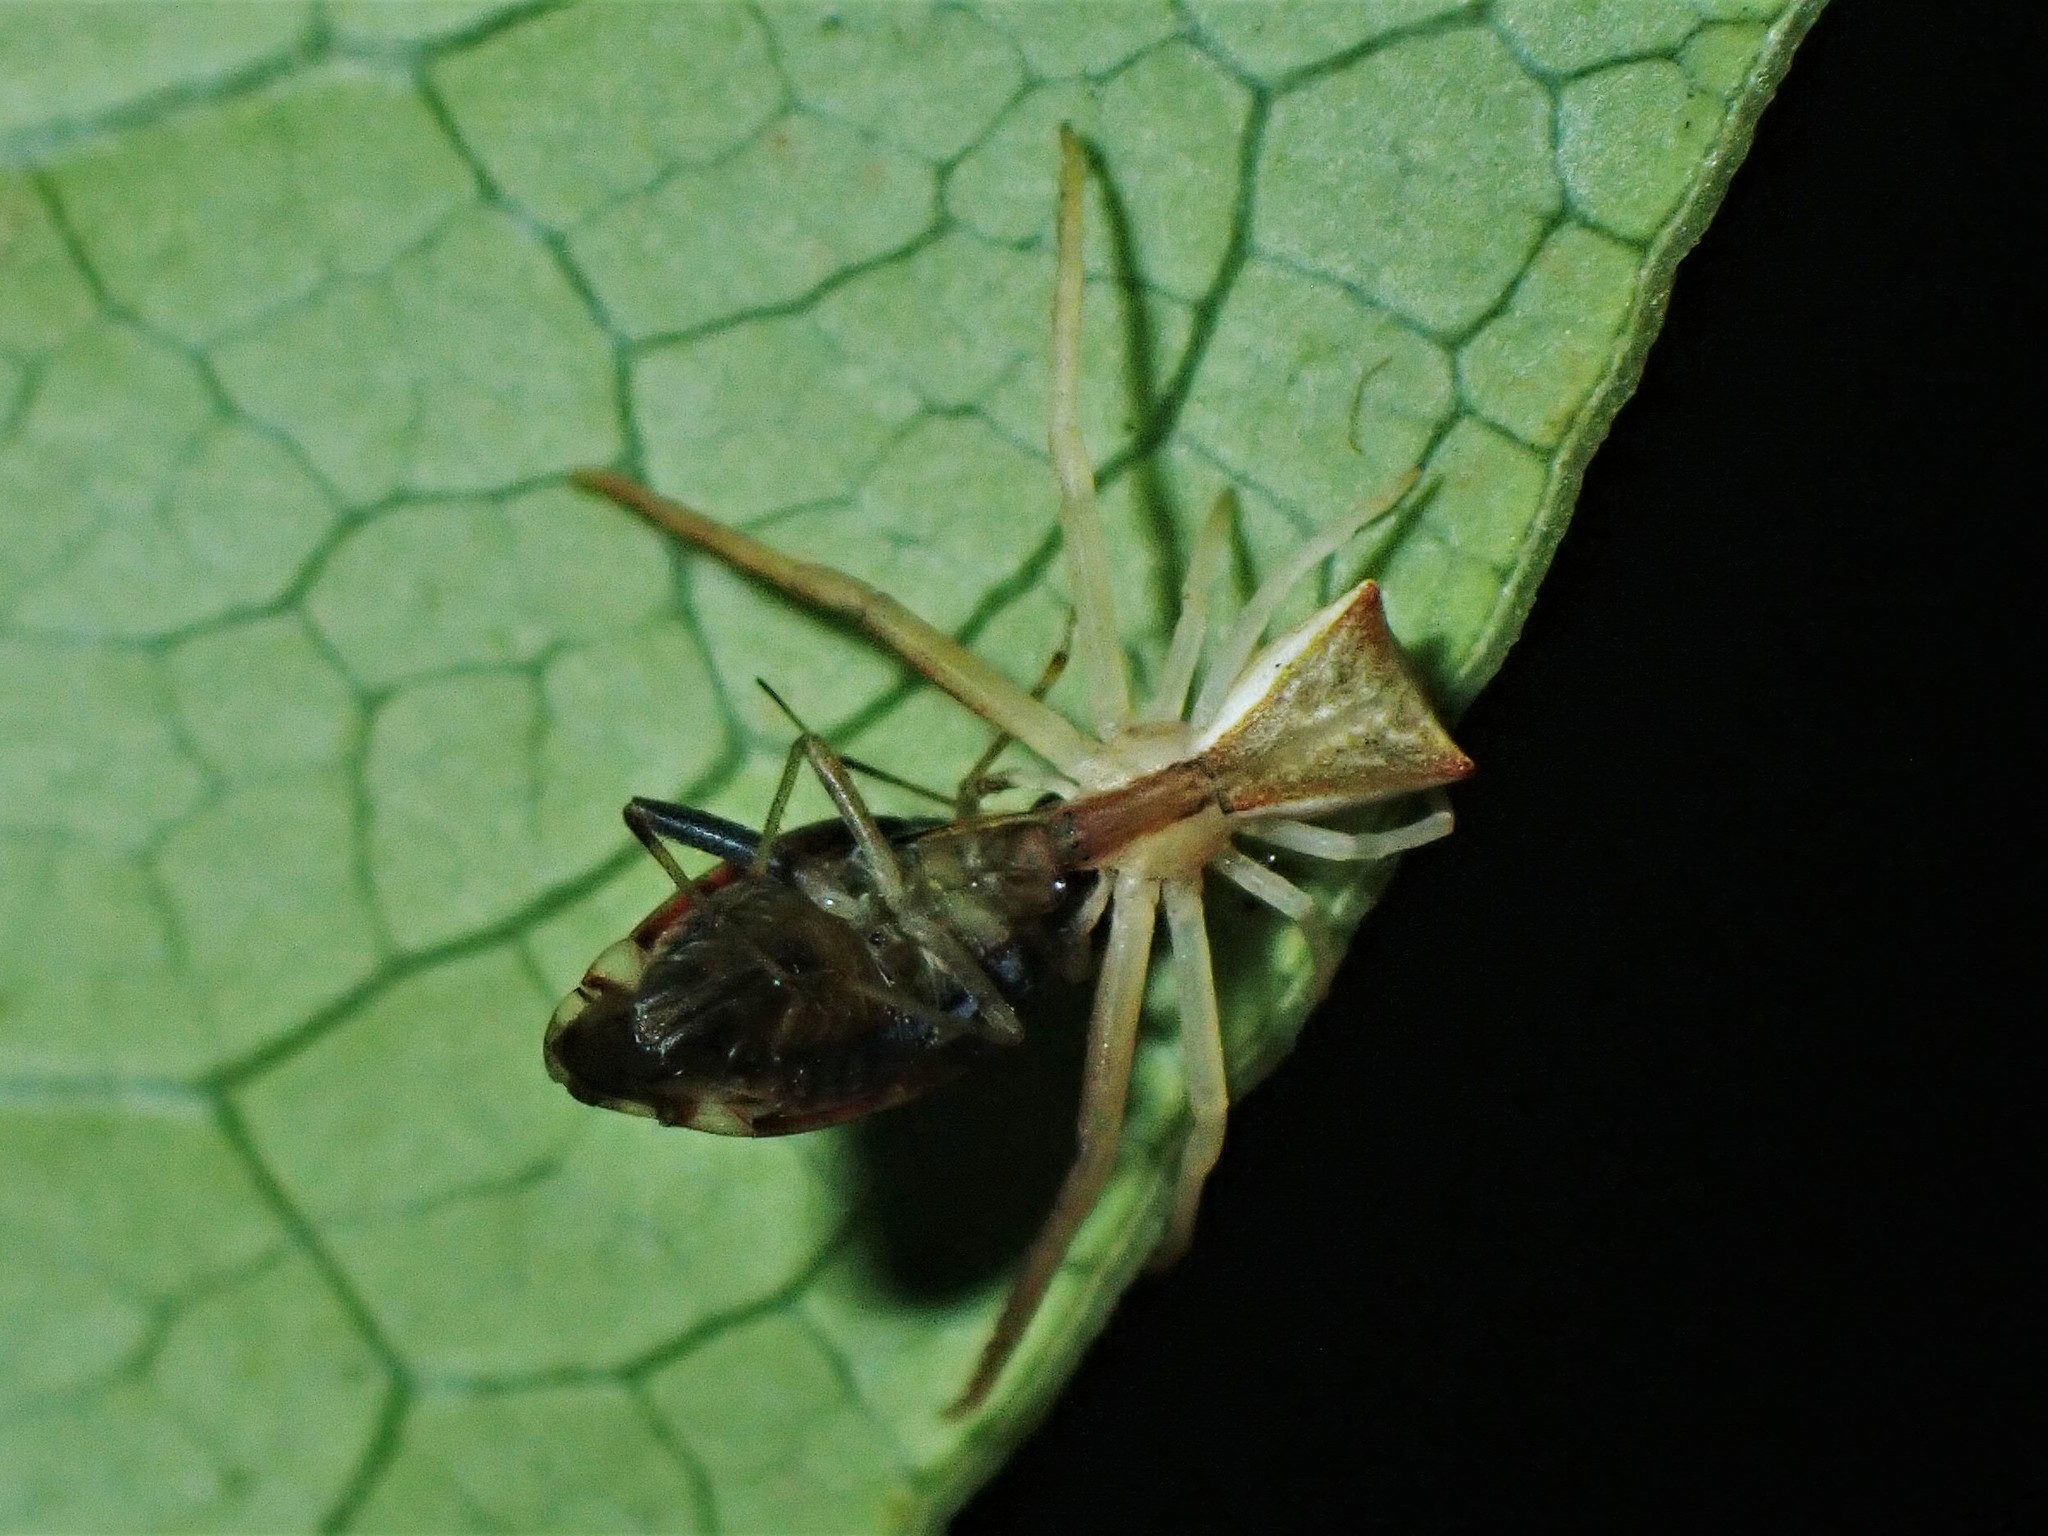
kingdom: Animalia
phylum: Arthropoda
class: Arachnida
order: Araneae
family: Thomisidae
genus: Sidymella
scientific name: Sidymella trapezia
